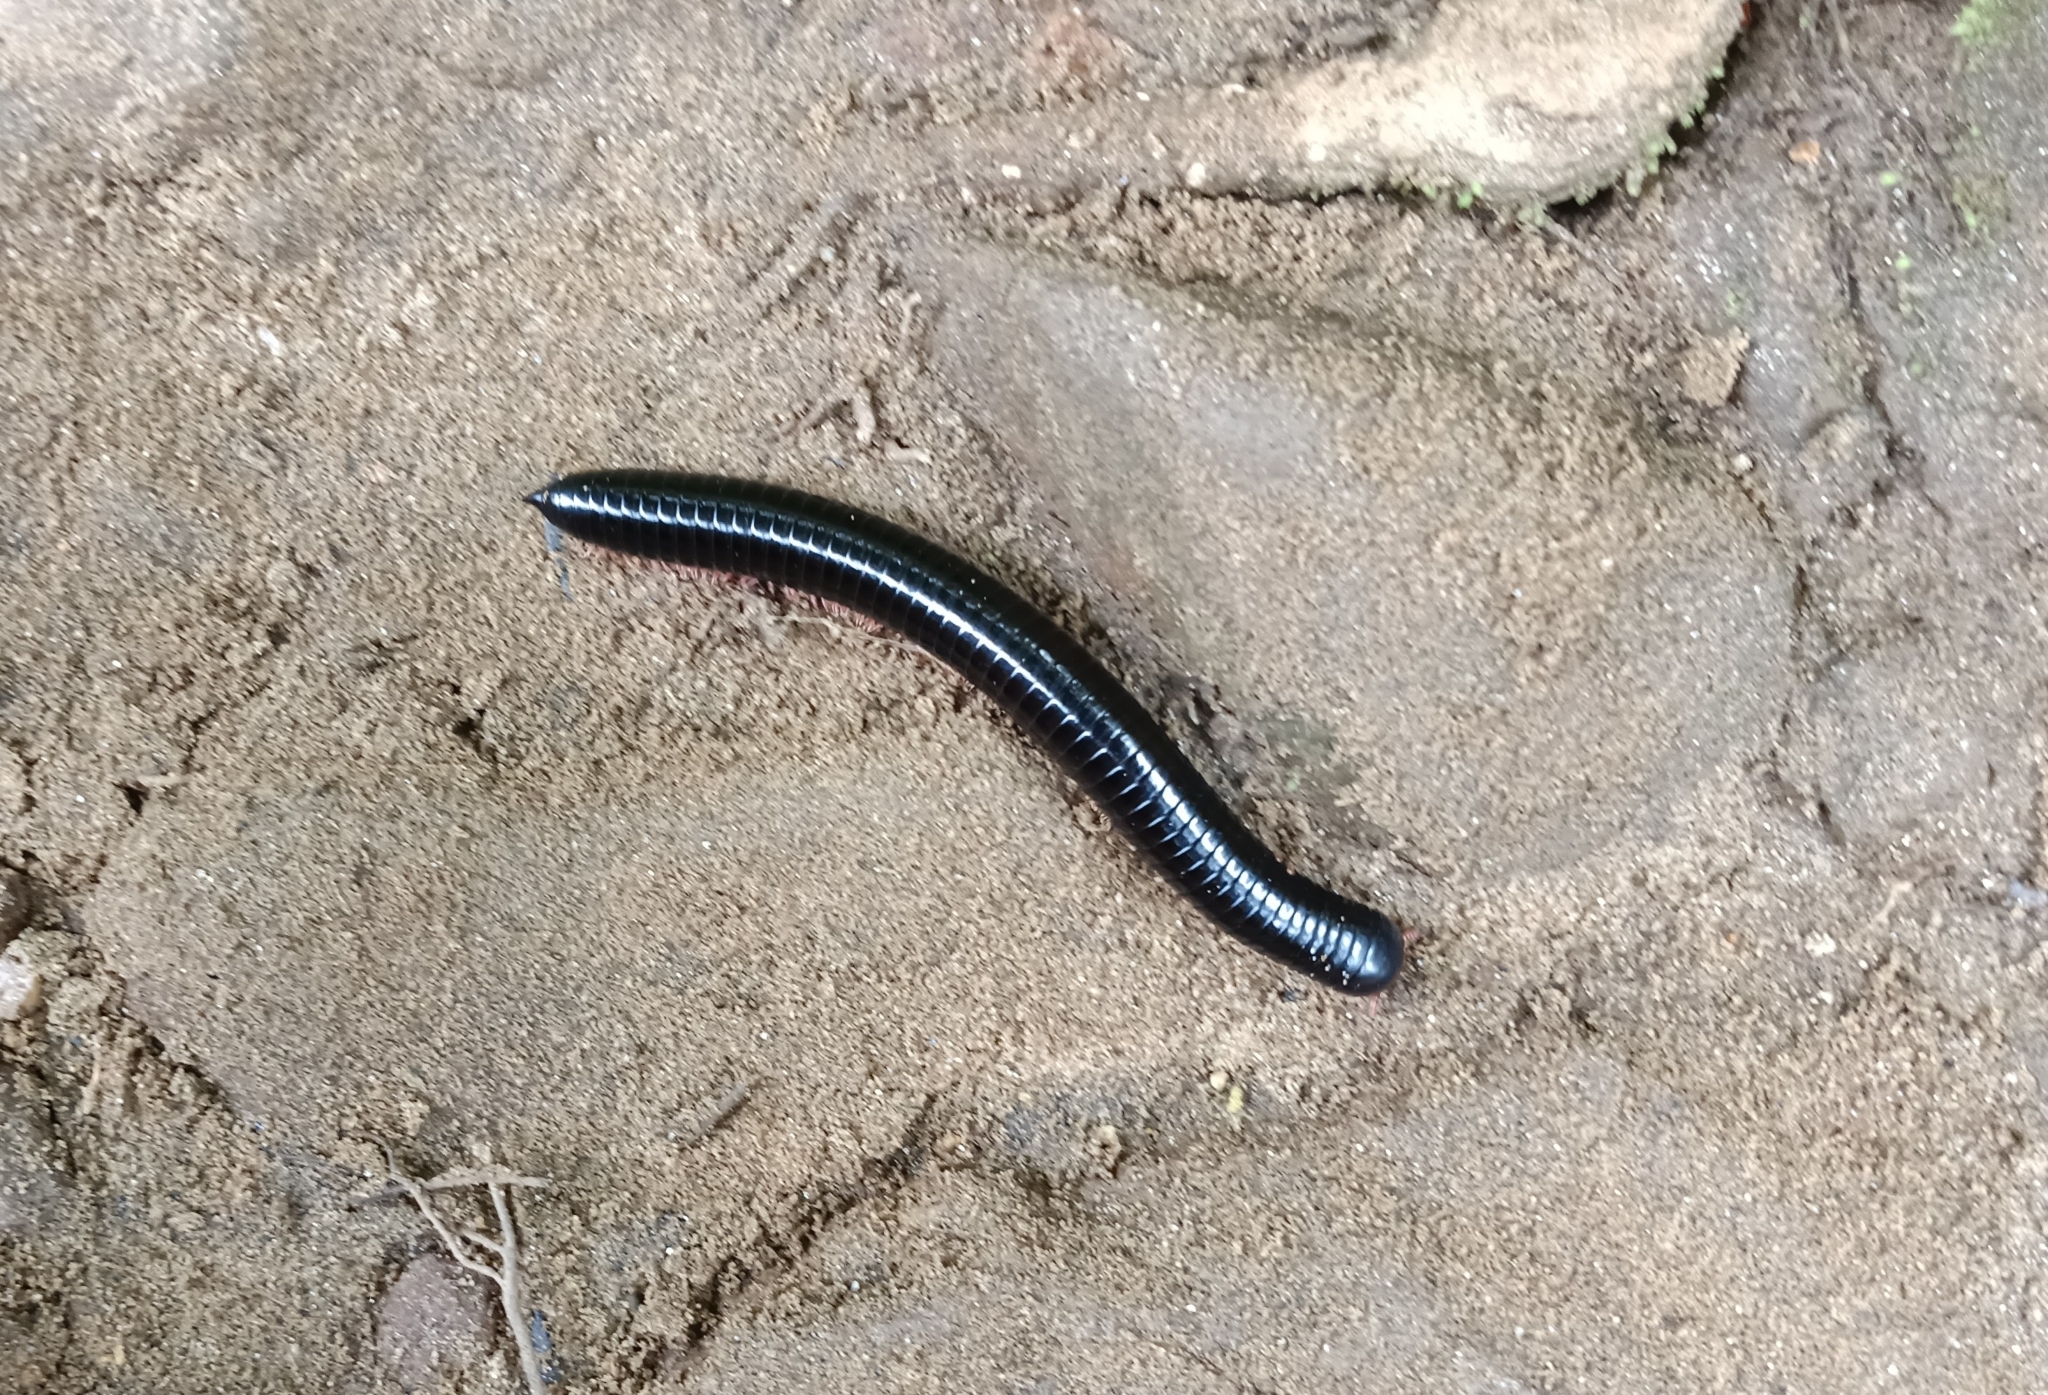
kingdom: Animalia
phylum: Arthropoda
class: Diplopoda
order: Spirostreptida
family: Harpagophoridae
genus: Phyllogonostreptus
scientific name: Phyllogonostreptus nigrolabiatus
